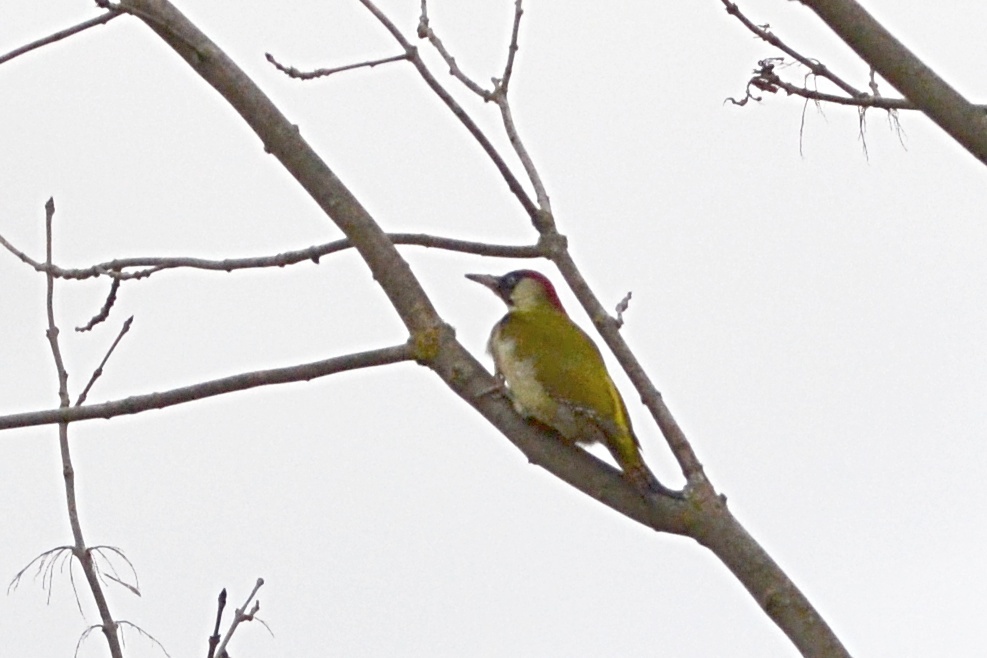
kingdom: Animalia
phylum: Chordata
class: Aves
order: Piciformes
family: Picidae
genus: Picus
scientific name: Picus viridis
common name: European green woodpecker
